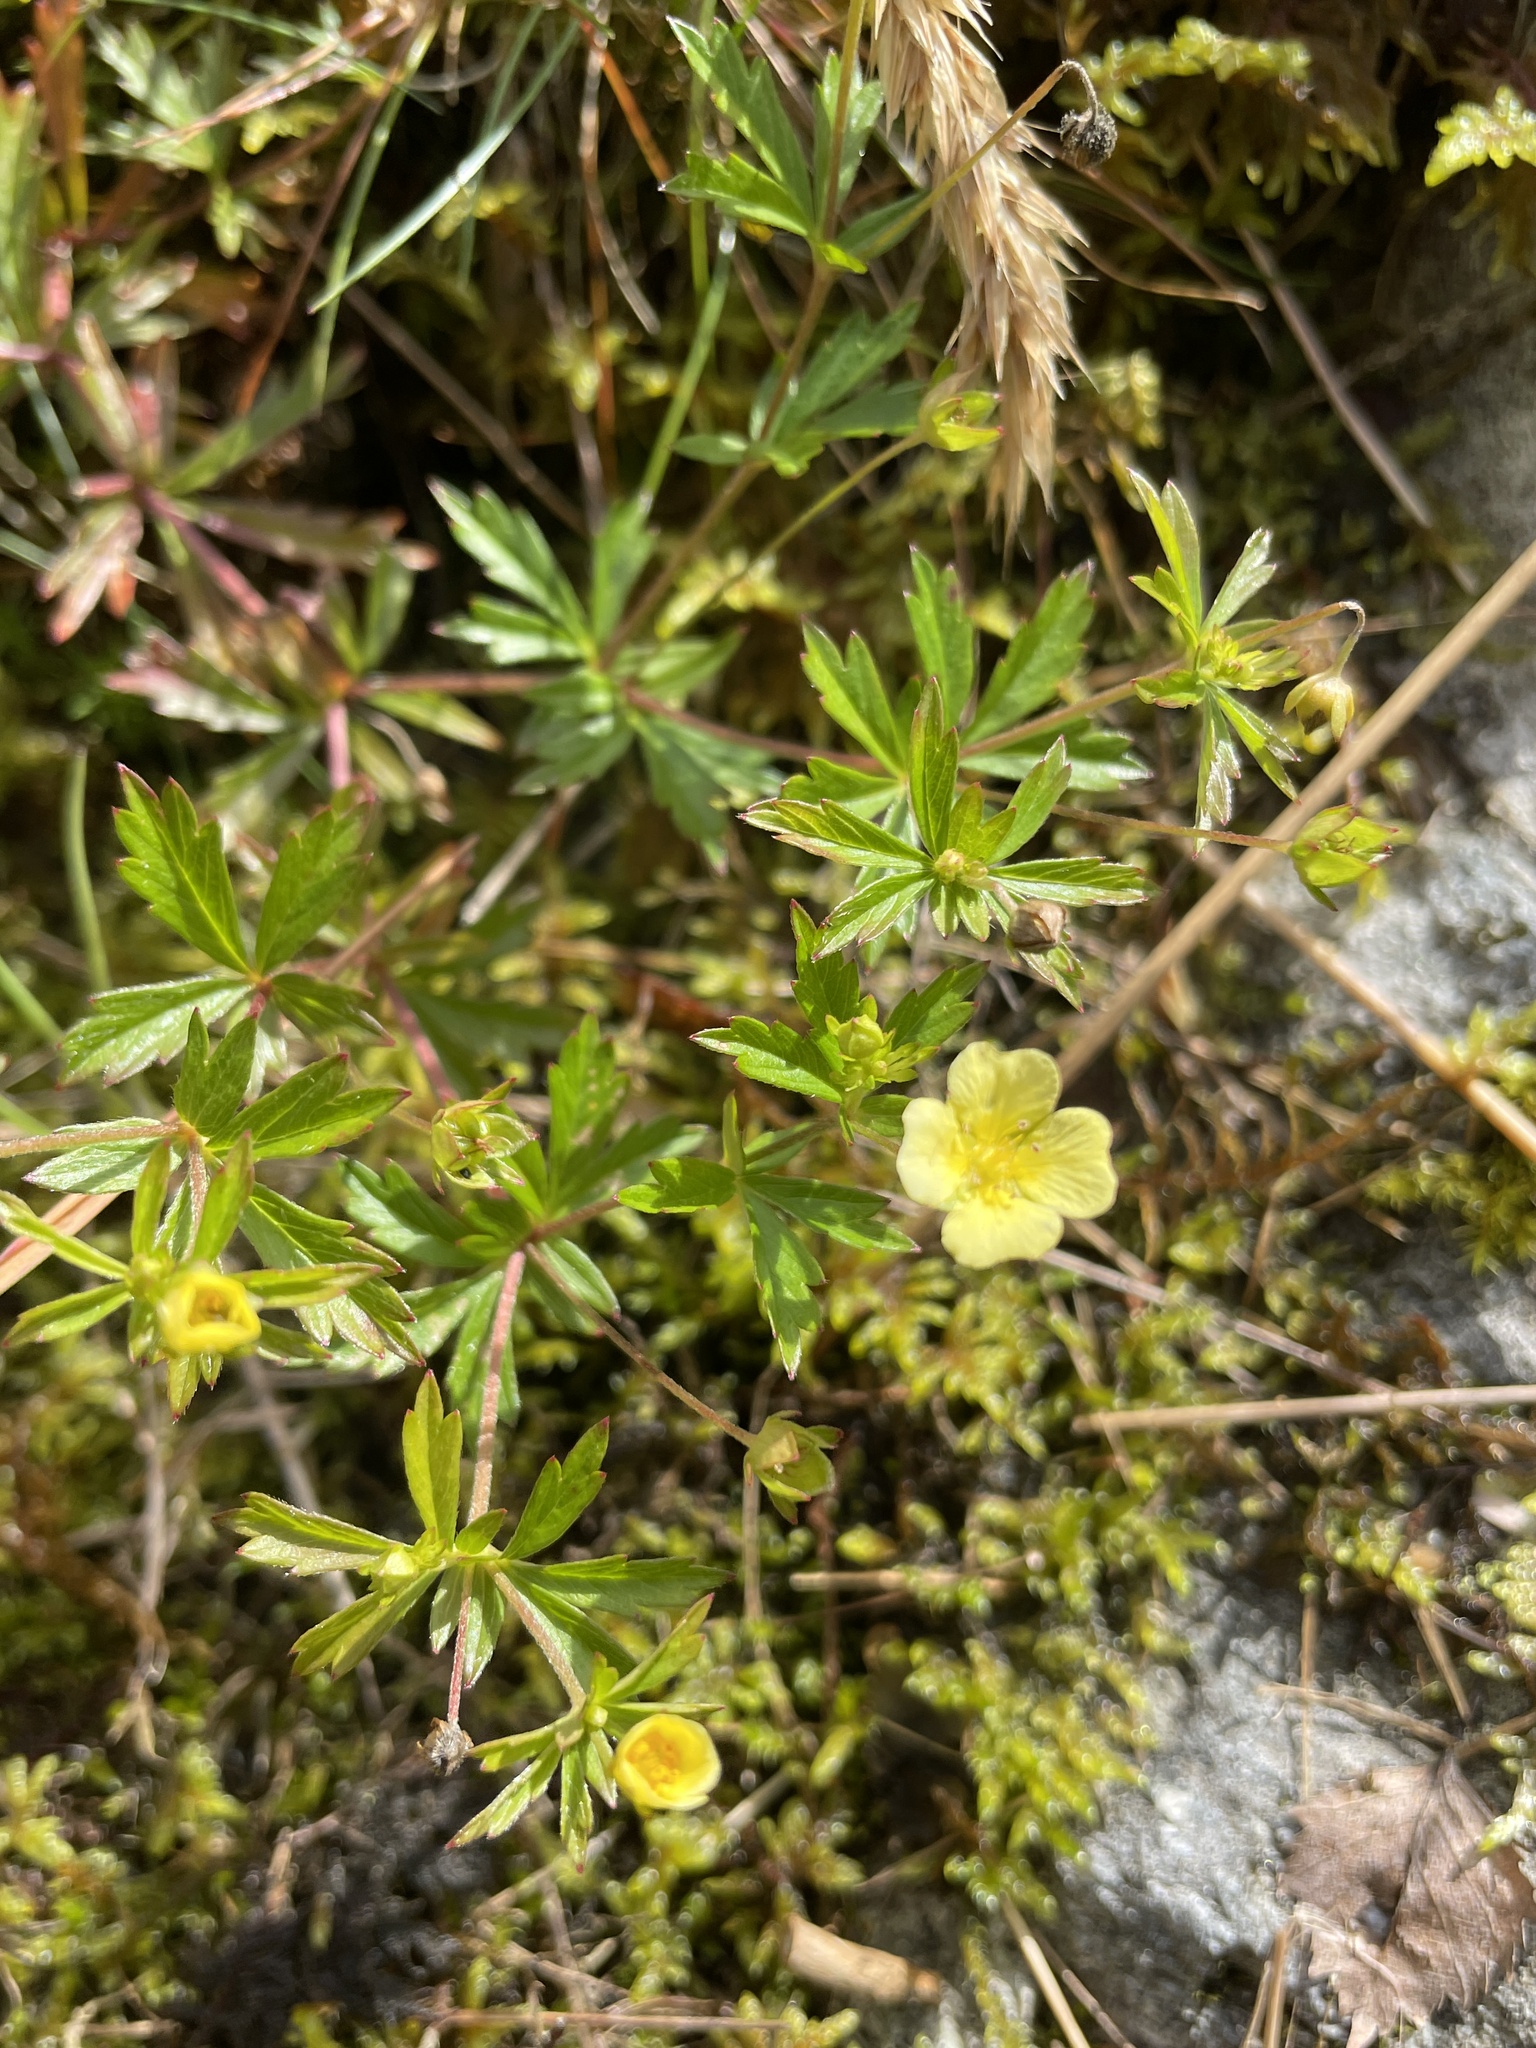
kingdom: Plantae
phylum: Tracheophyta
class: Magnoliopsida
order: Rosales
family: Rosaceae
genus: Potentilla
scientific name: Potentilla erecta
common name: Tormentil
